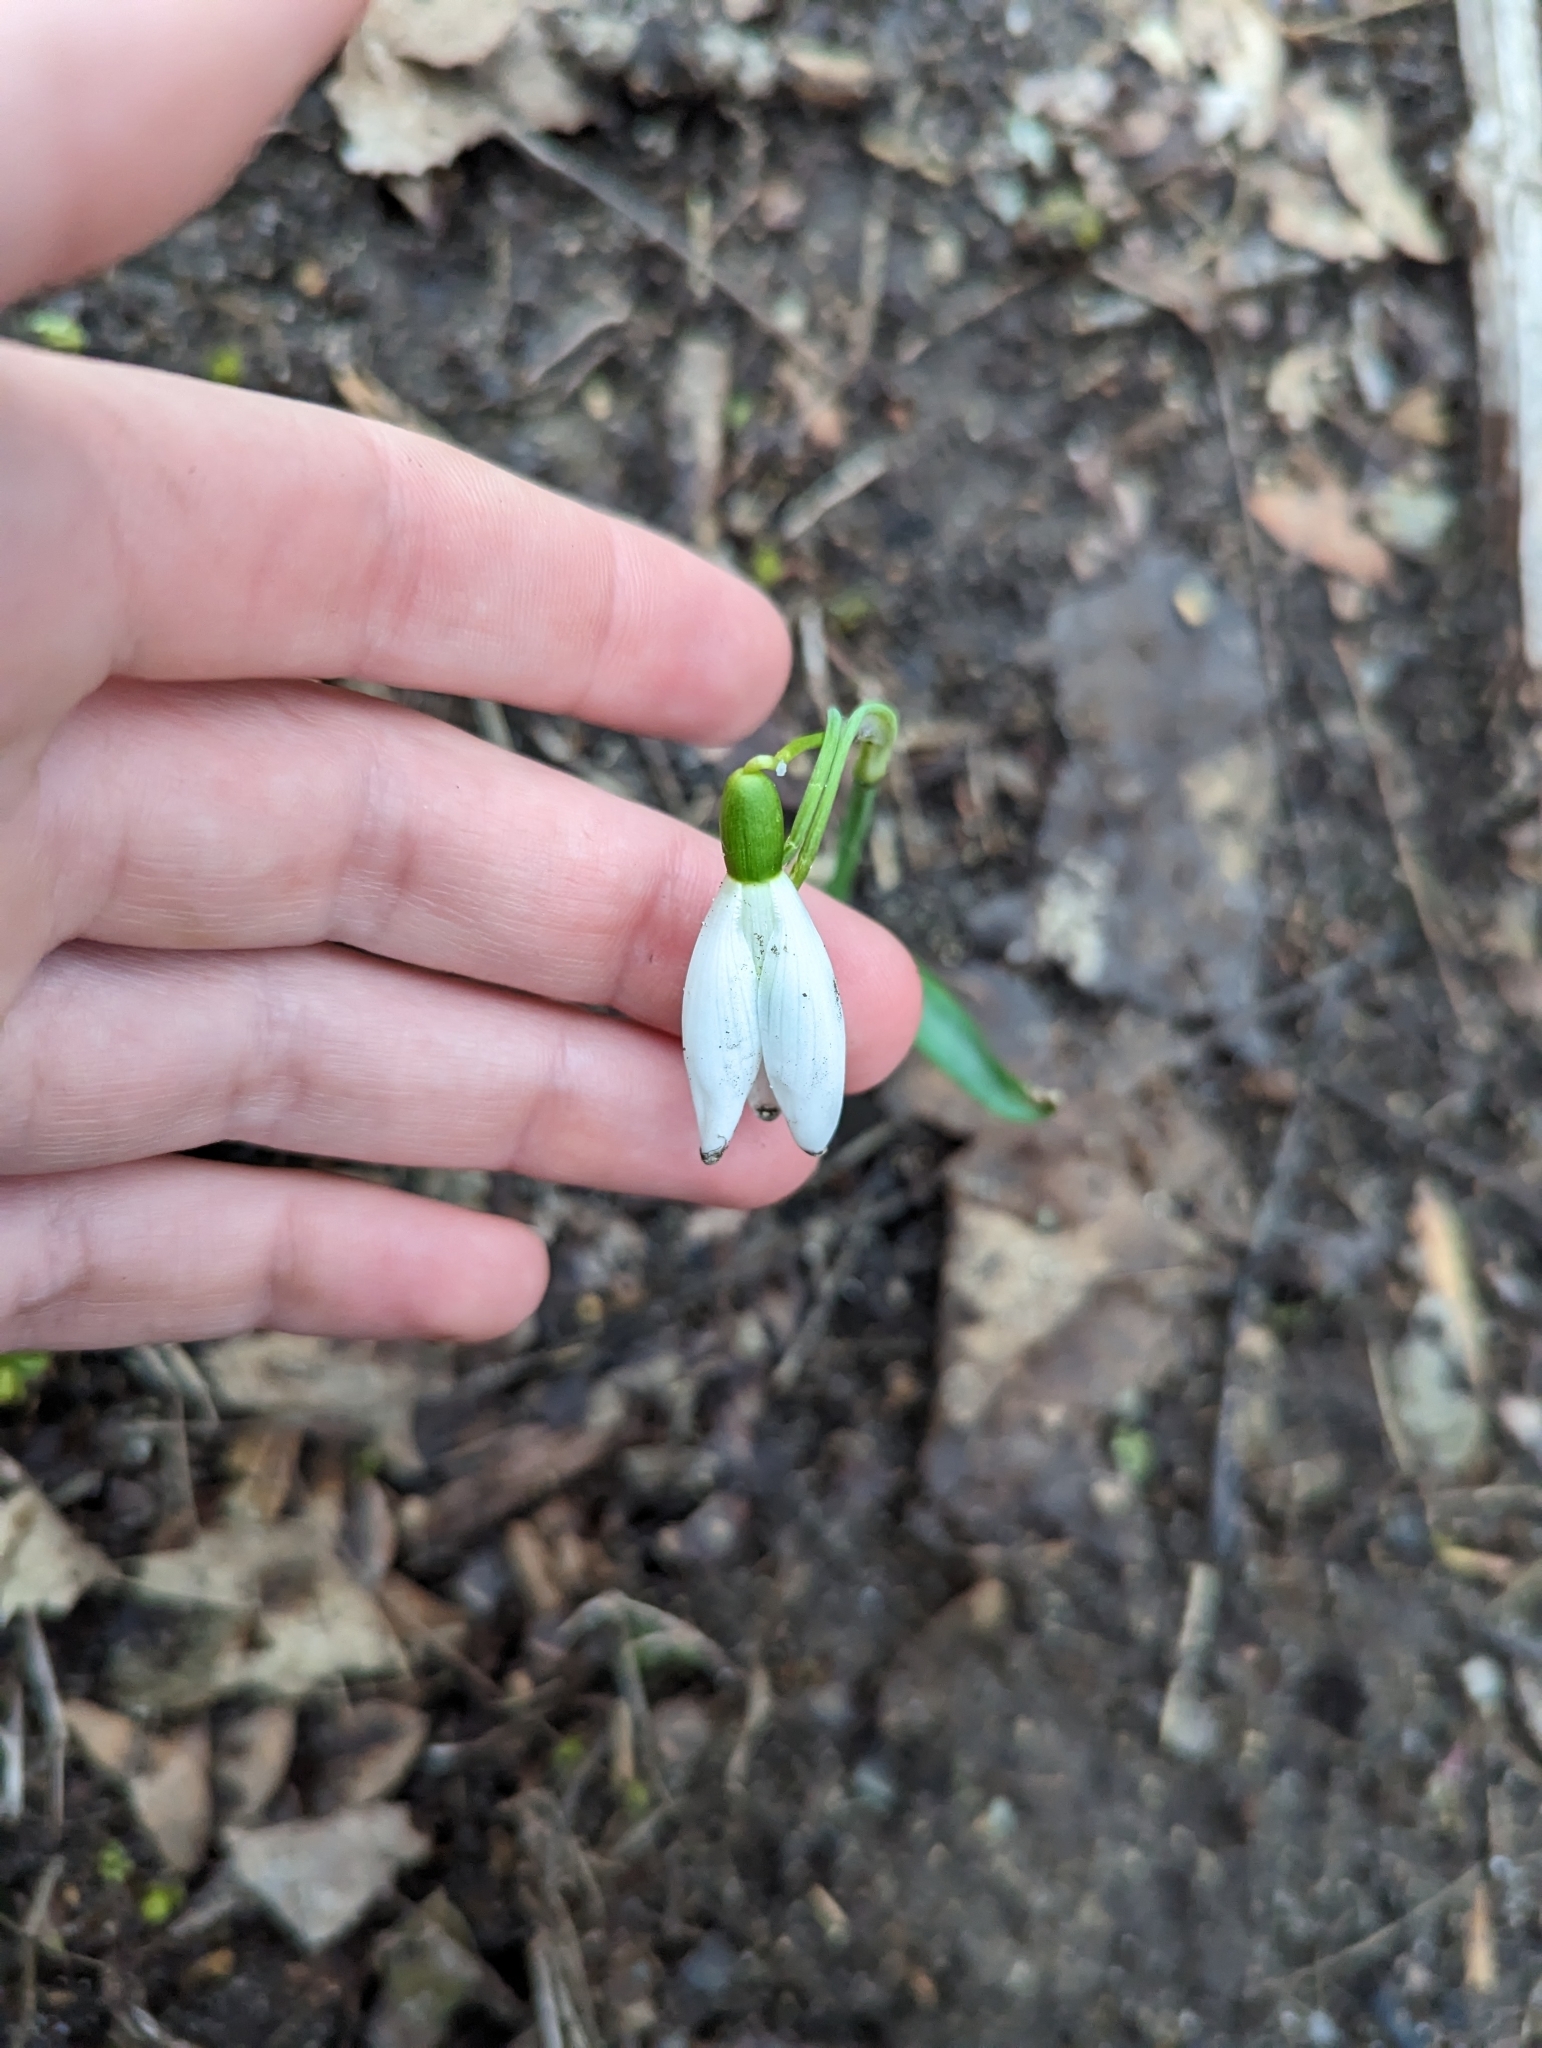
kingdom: Plantae
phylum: Tracheophyta
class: Liliopsida
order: Asparagales
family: Amaryllidaceae
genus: Galanthus
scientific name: Galanthus nivalis
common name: Snowdrop
